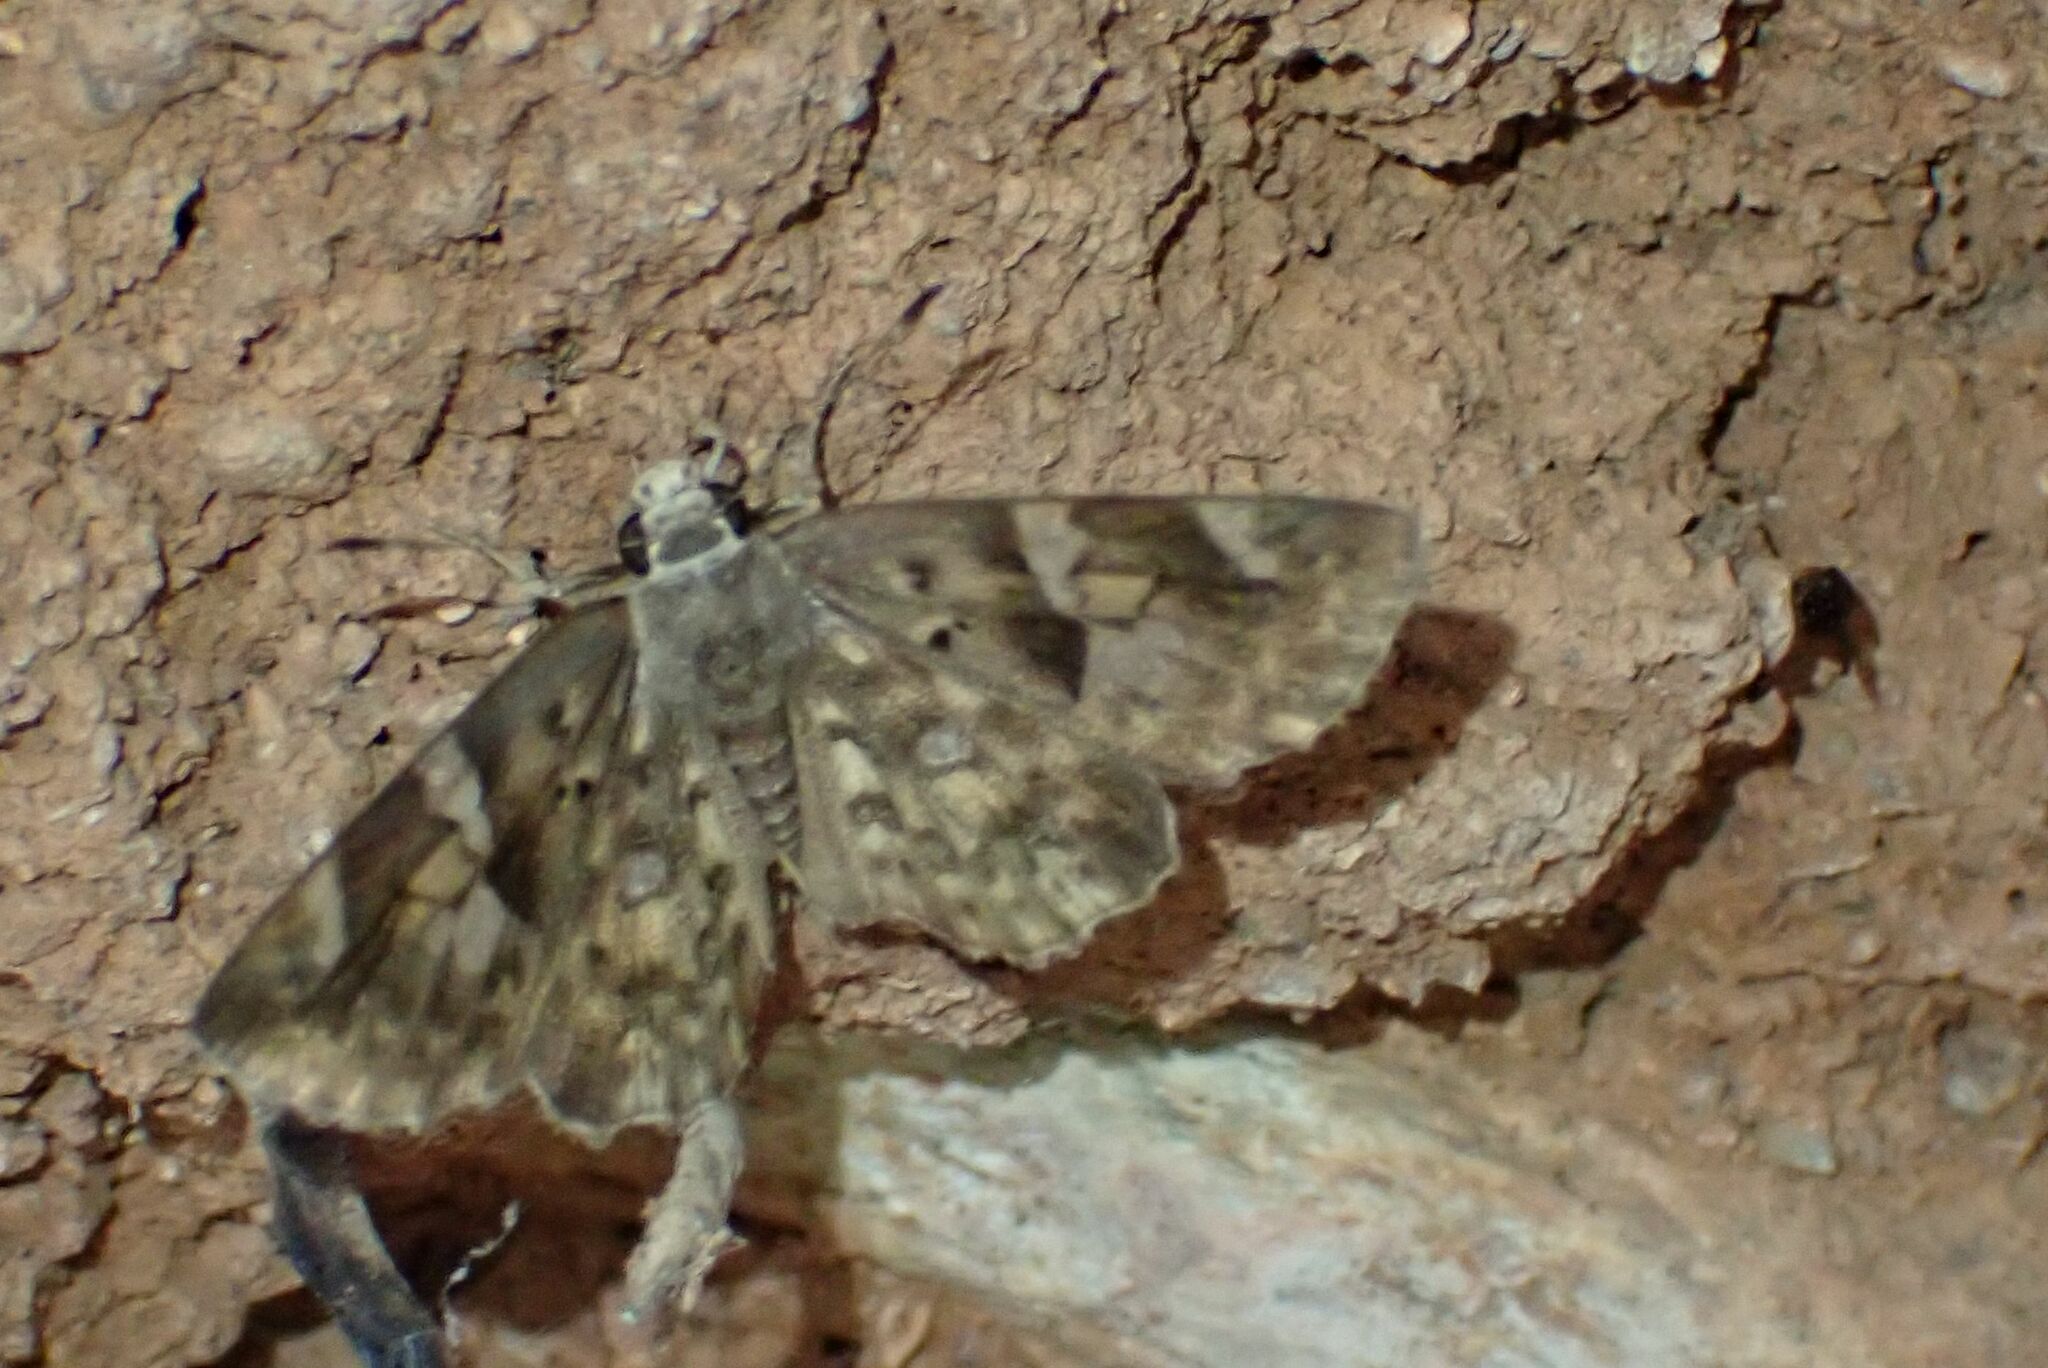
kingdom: Animalia
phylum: Arthropoda
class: Insecta
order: Lepidoptera
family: Hesperiidae
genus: Sarangesa
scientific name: Sarangesa motozi
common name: Forest elfin
